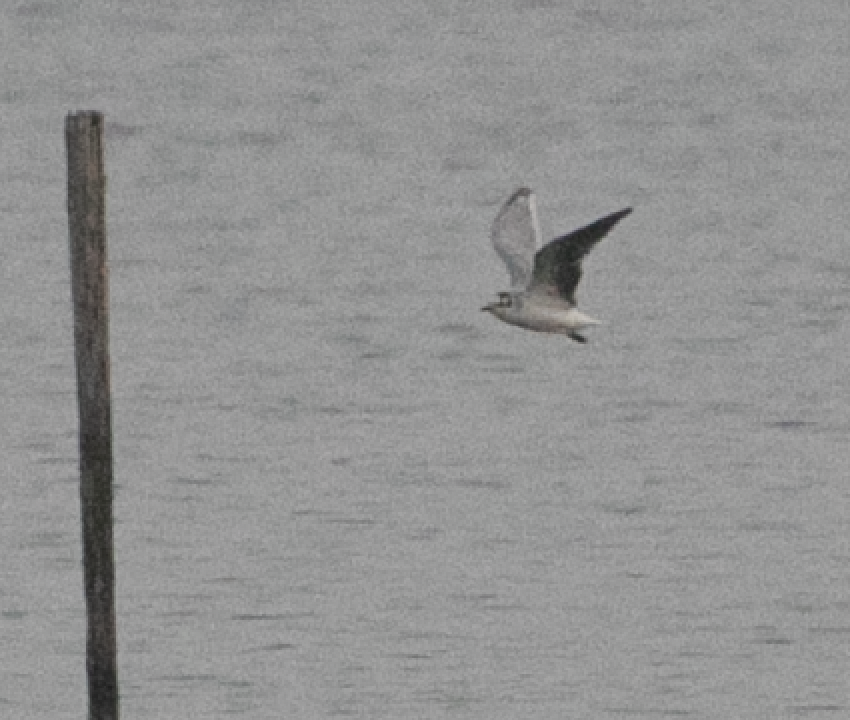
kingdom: Animalia
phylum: Chordata
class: Aves
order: Charadriiformes
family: Laridae
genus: Hydrocoloeus
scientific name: Hydrocoloeus minutus
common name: Little gull
